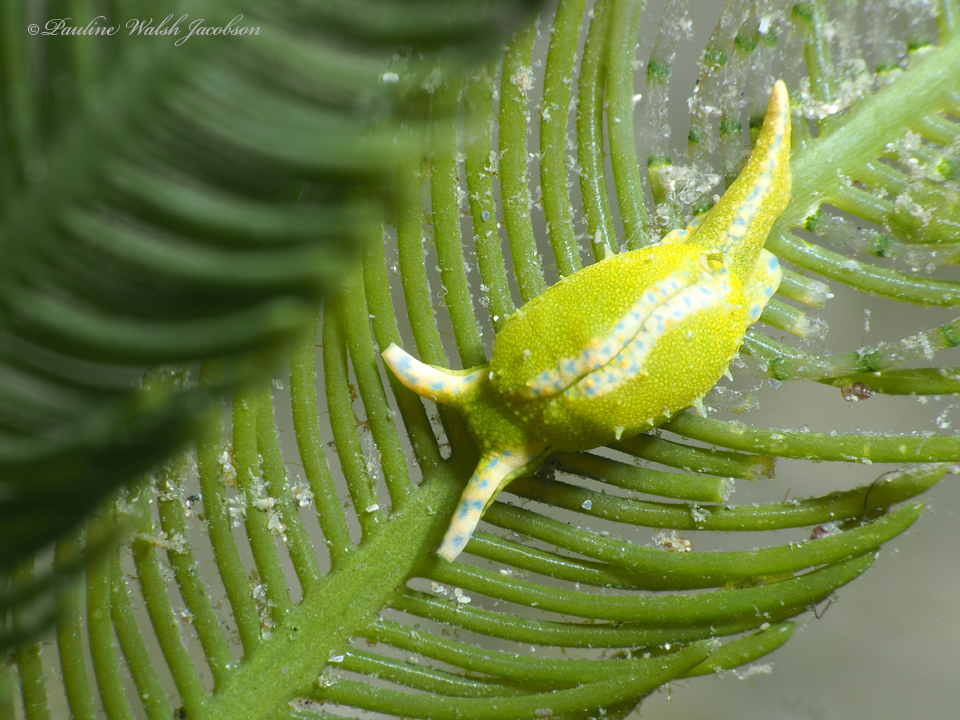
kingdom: Animalia
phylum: Mollusca
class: Gastropoda
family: Oxynoidae
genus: Oxynoe
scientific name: Oxynoe antillarum
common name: Antilles oxynoe
